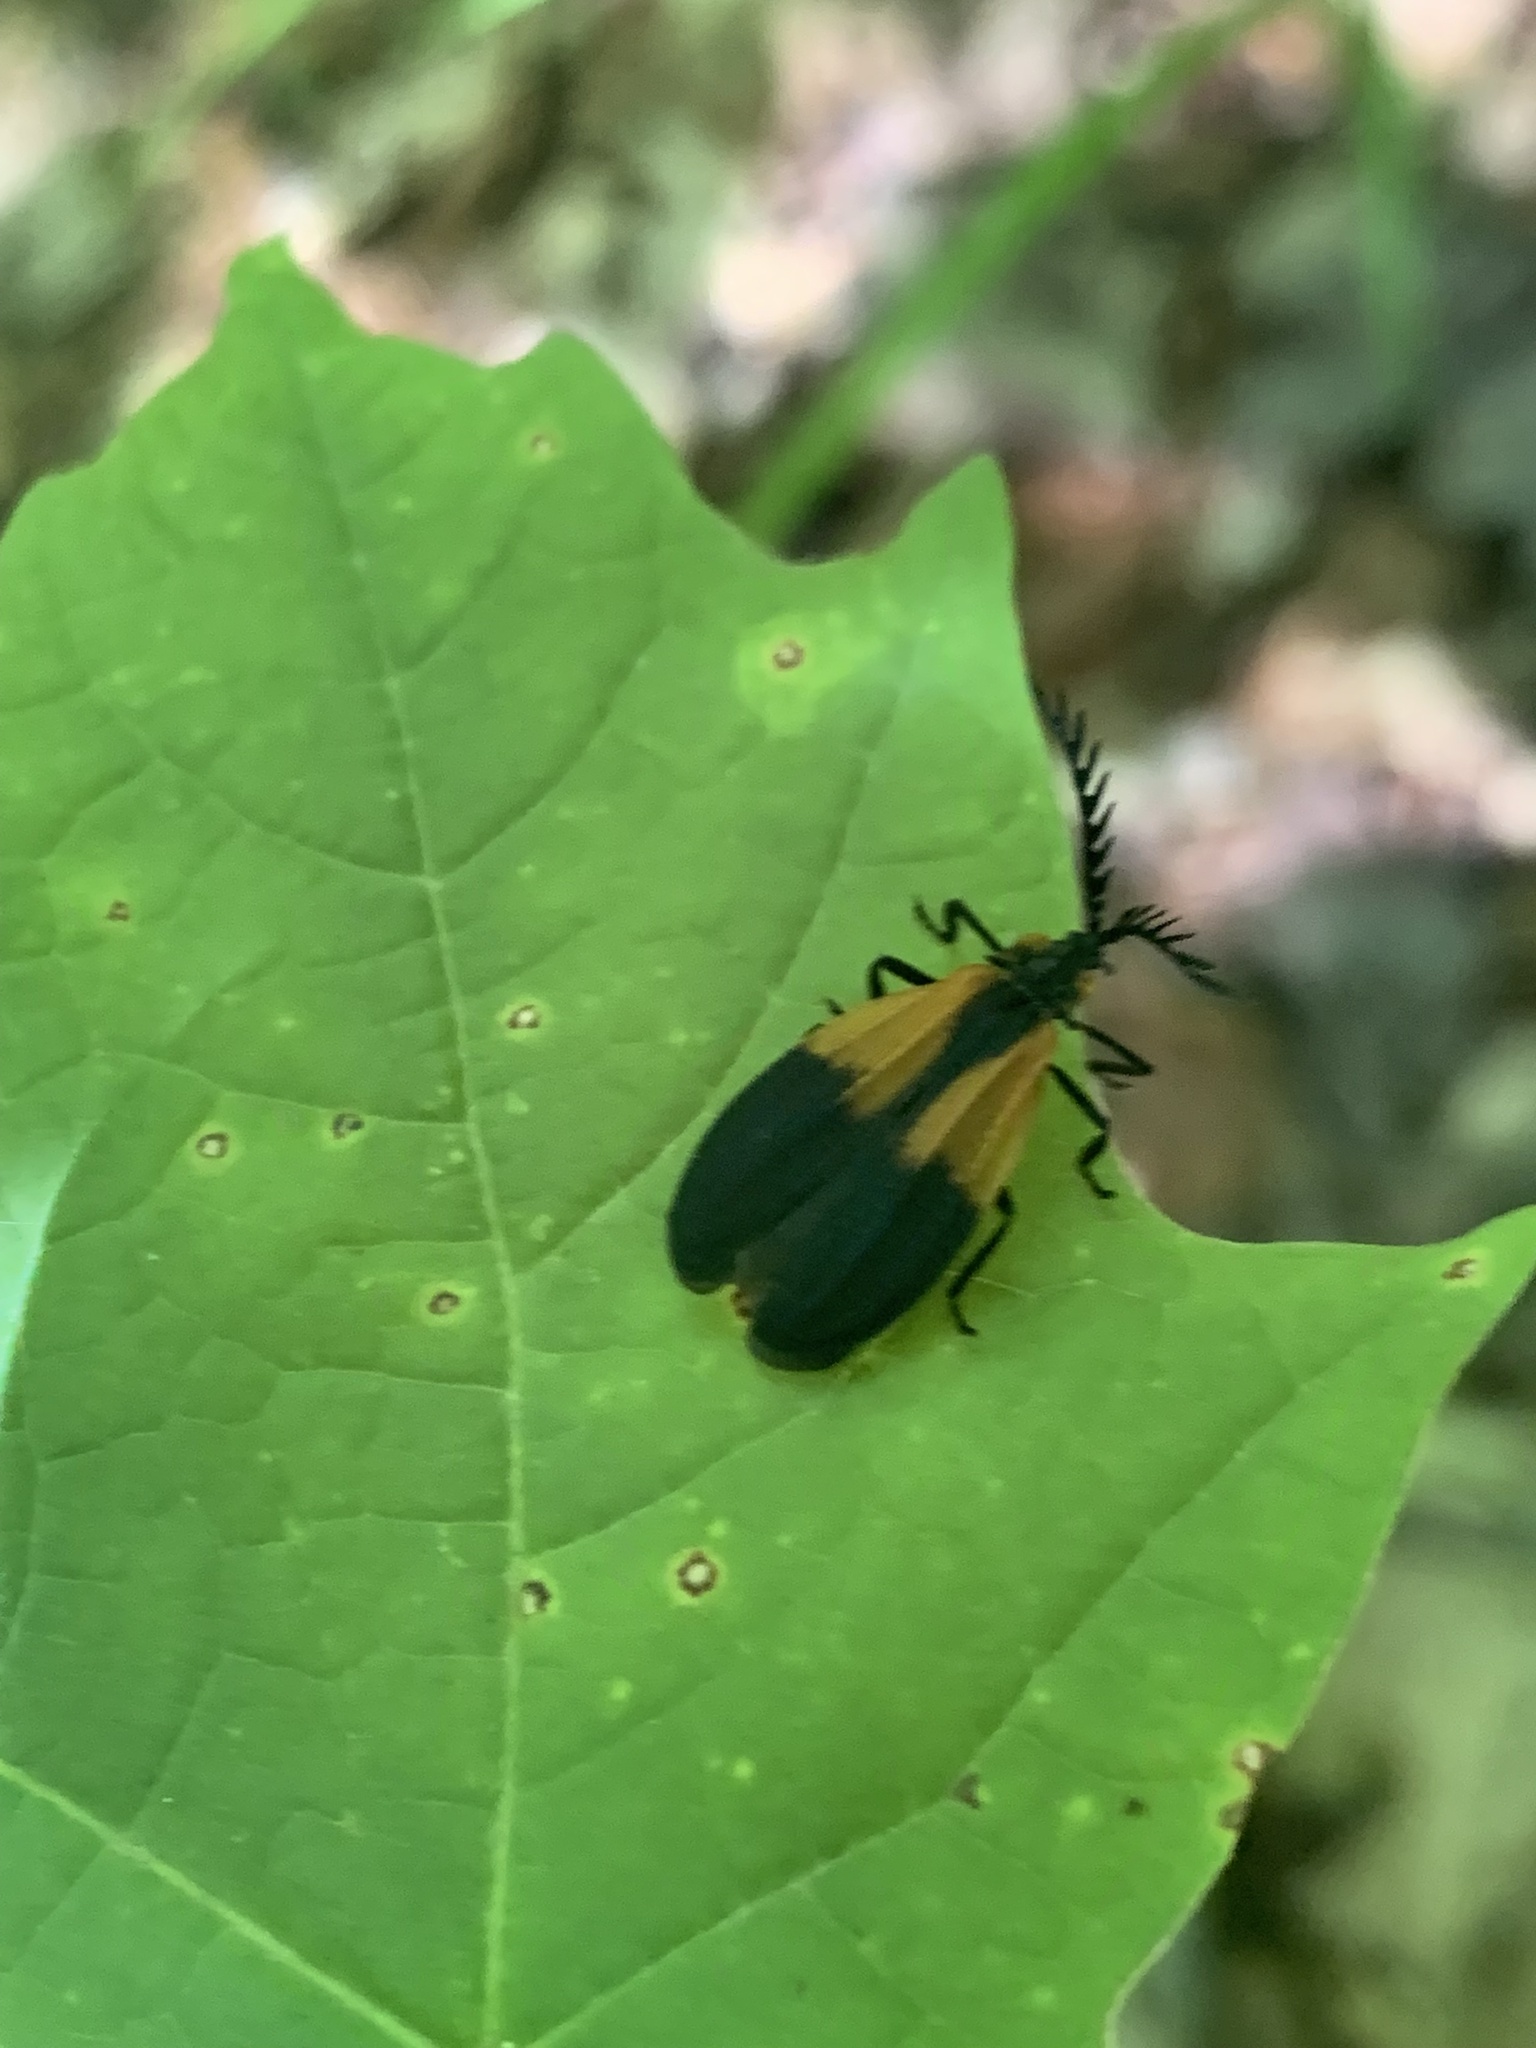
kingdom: Animalia
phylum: Arthropoda
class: Insecta
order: Coleoptera
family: Lycidae
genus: Caenia
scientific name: Caenia dimidiata
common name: Terminal net-winged beetle
